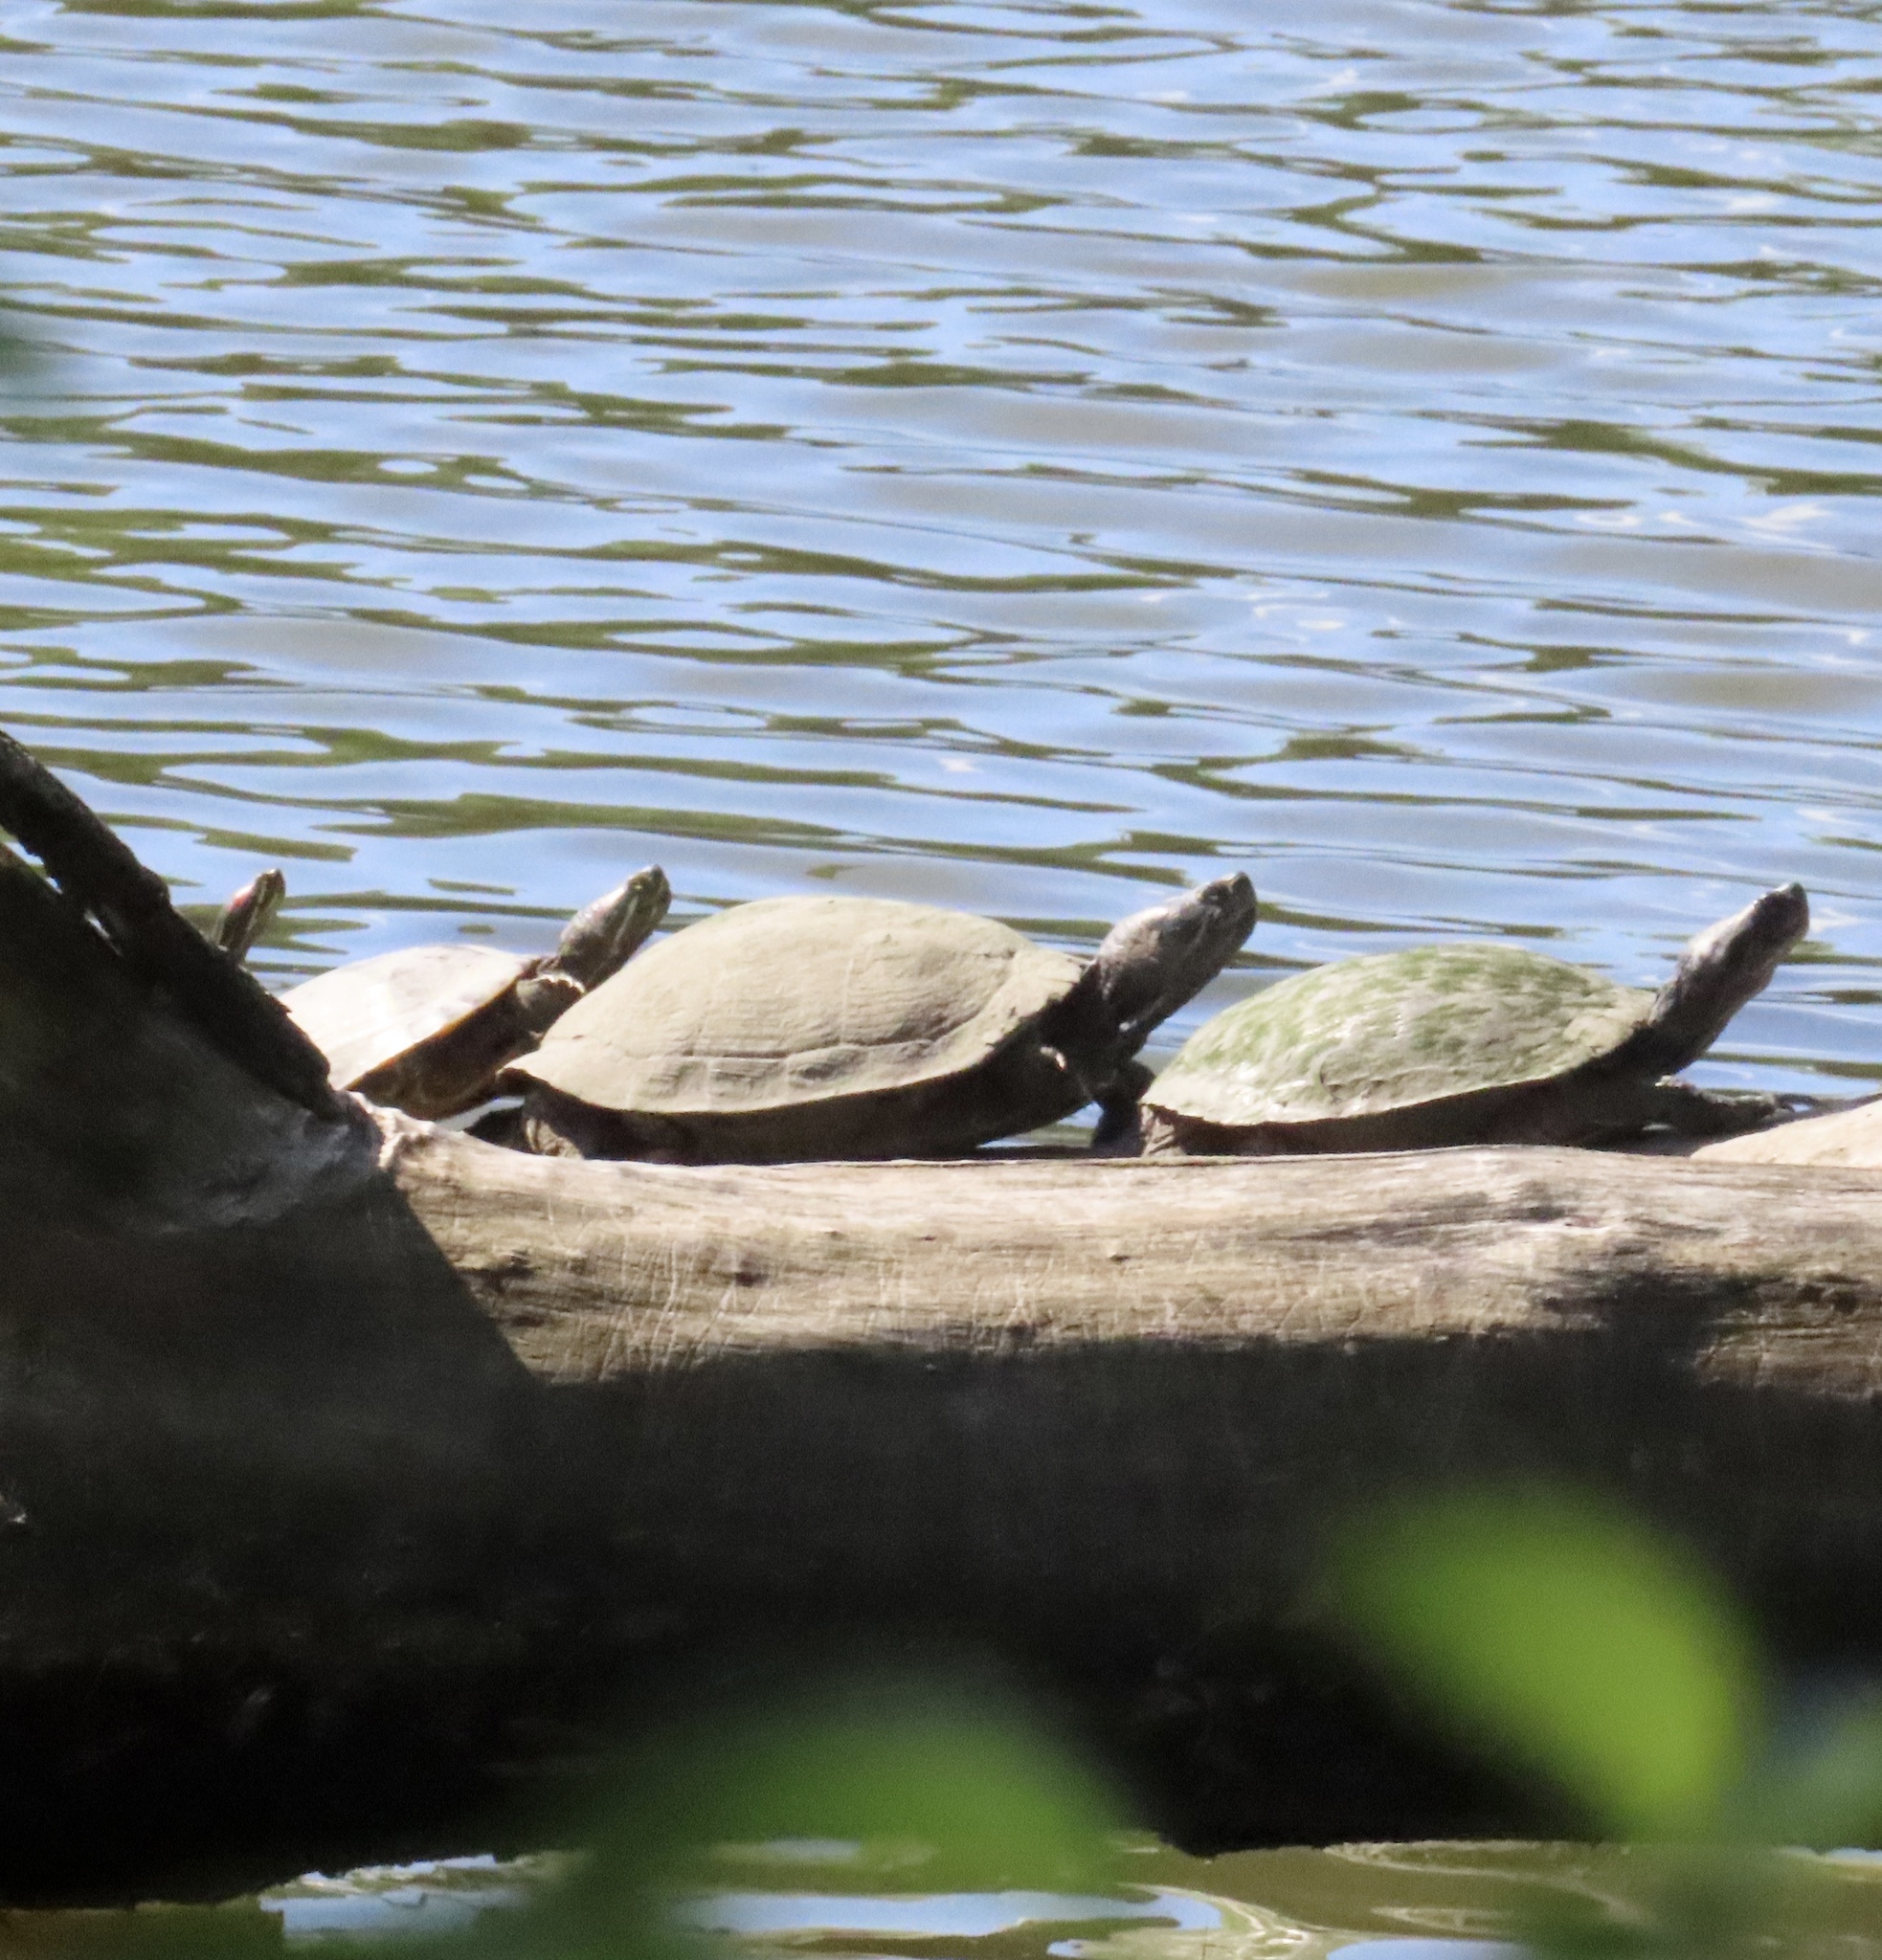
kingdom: Animalia
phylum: Chordata
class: Testudines
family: Emydidae
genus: Trachemys
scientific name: Trachemys scripta
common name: Slider
